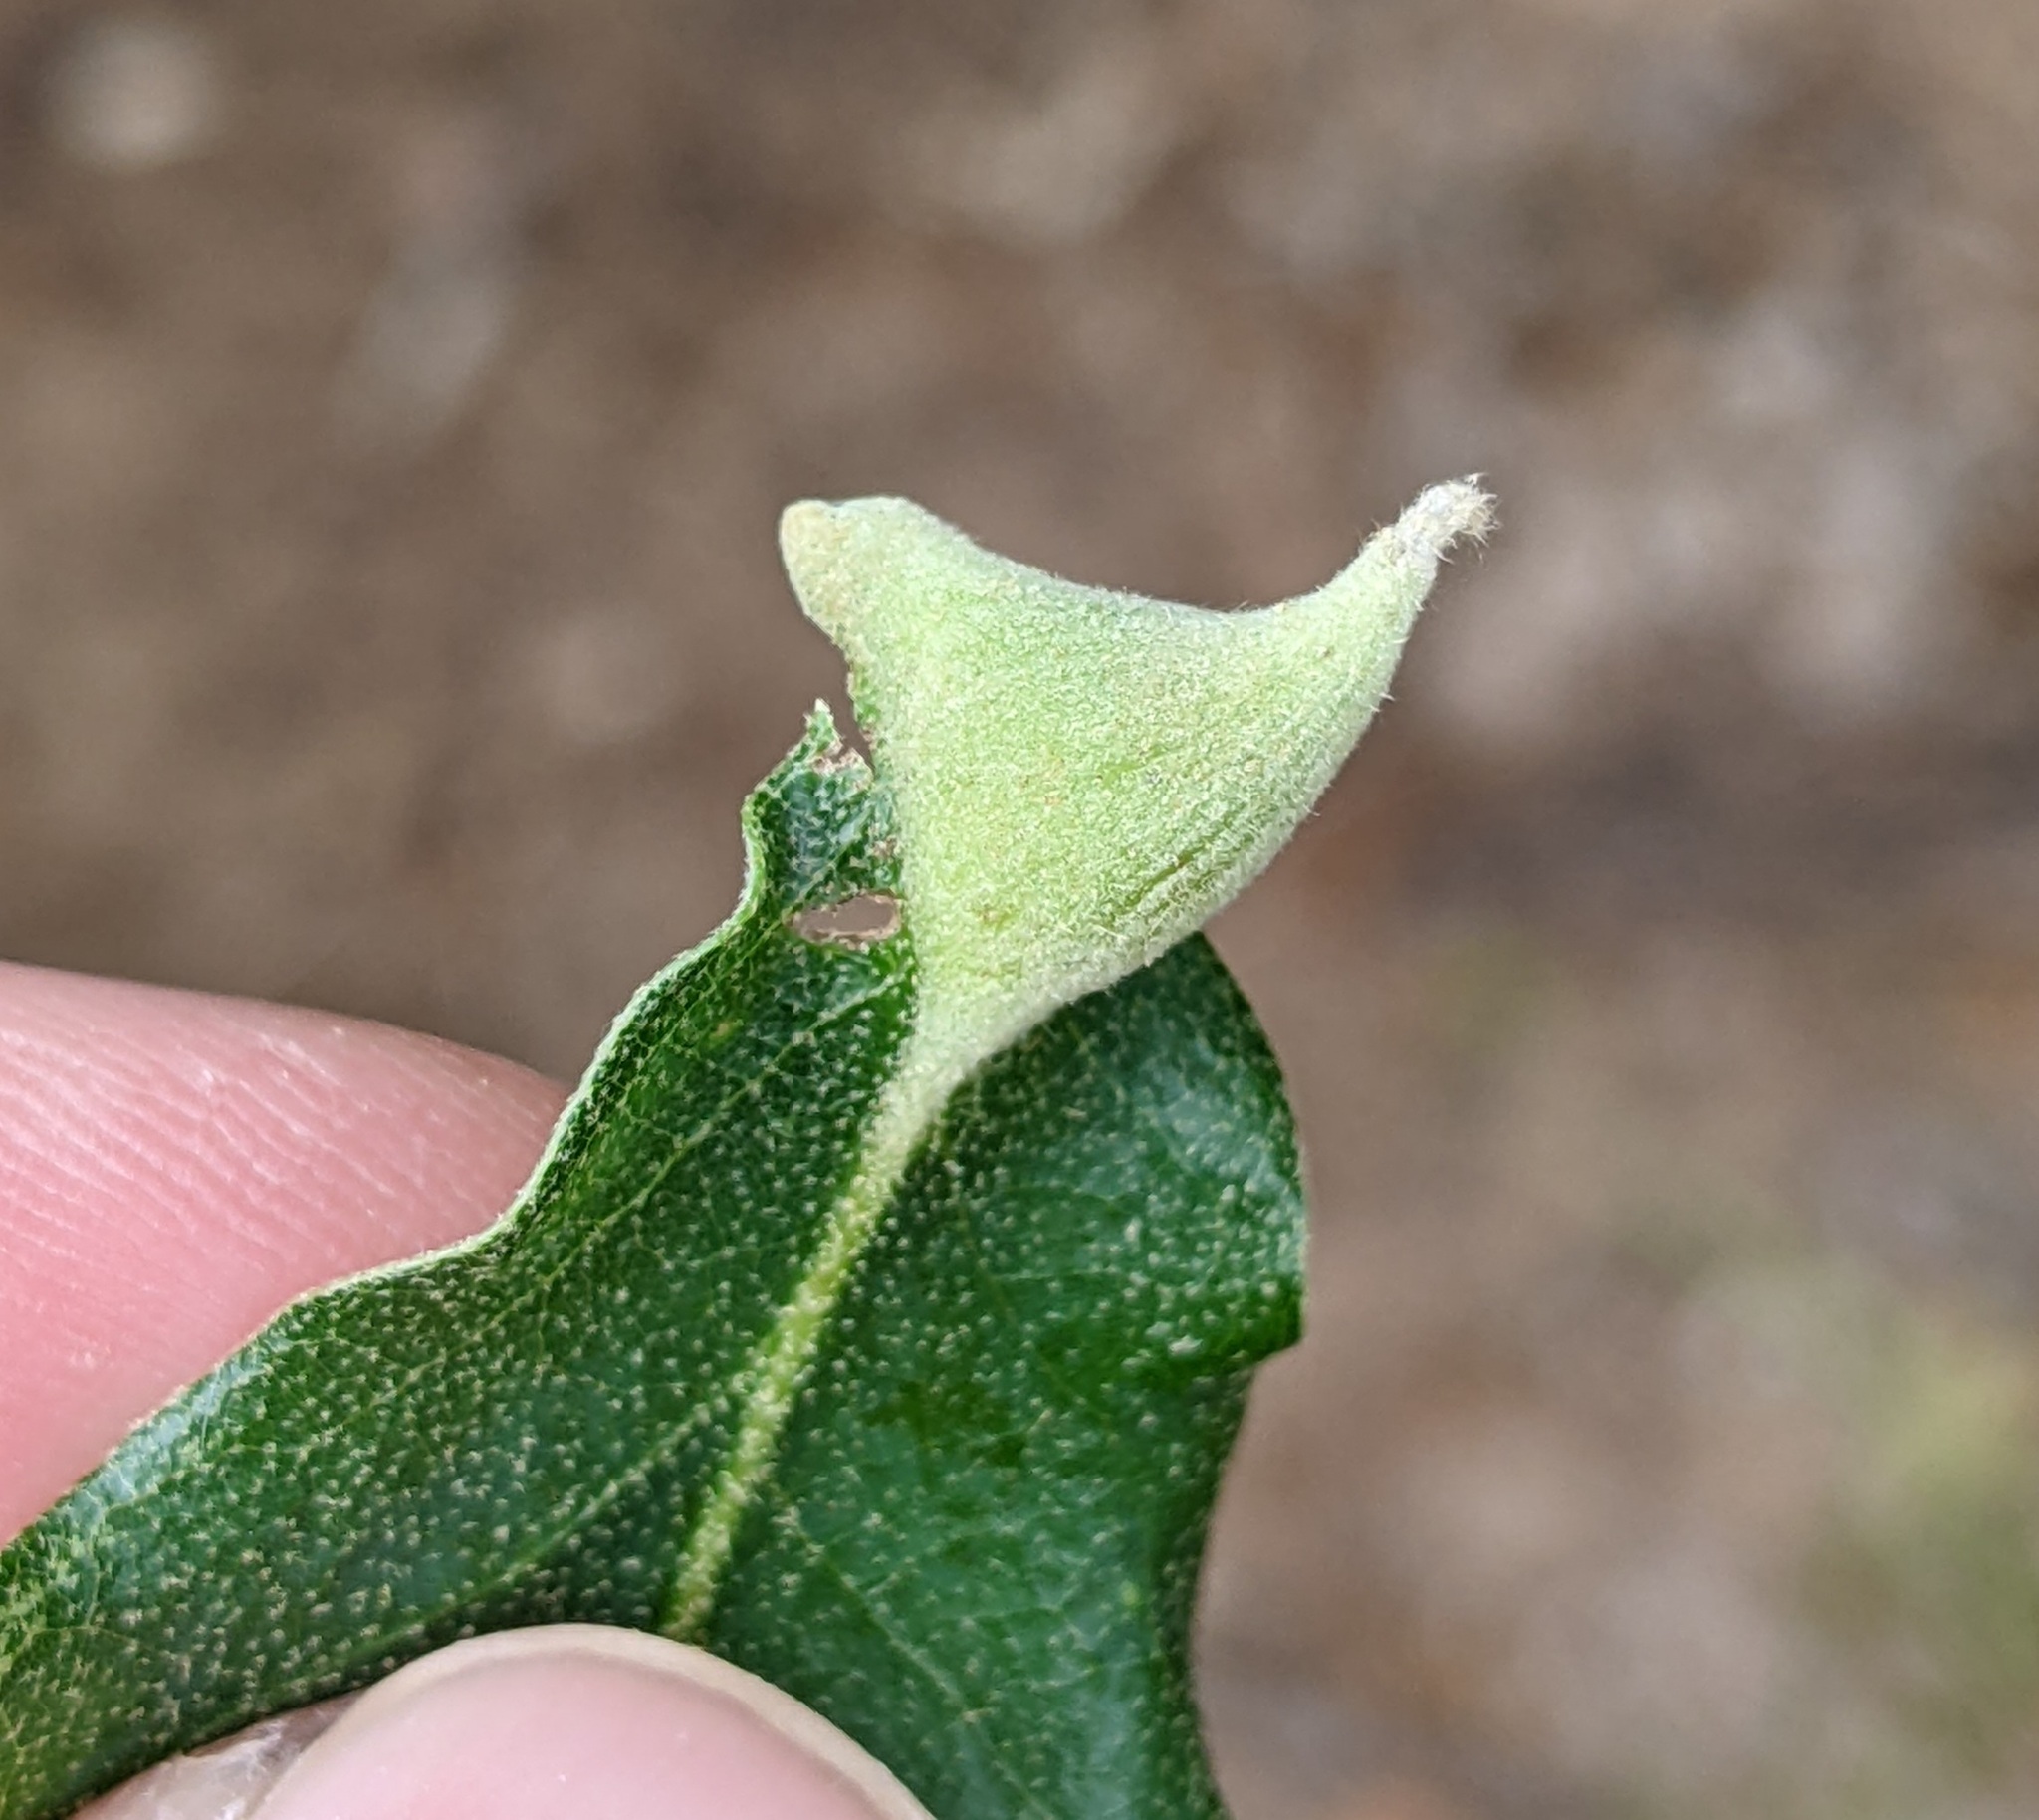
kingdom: Animalia
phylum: Arthropoda
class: Insecta
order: Hymenoptera
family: Cynipidae
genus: Andricus
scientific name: Andricus
